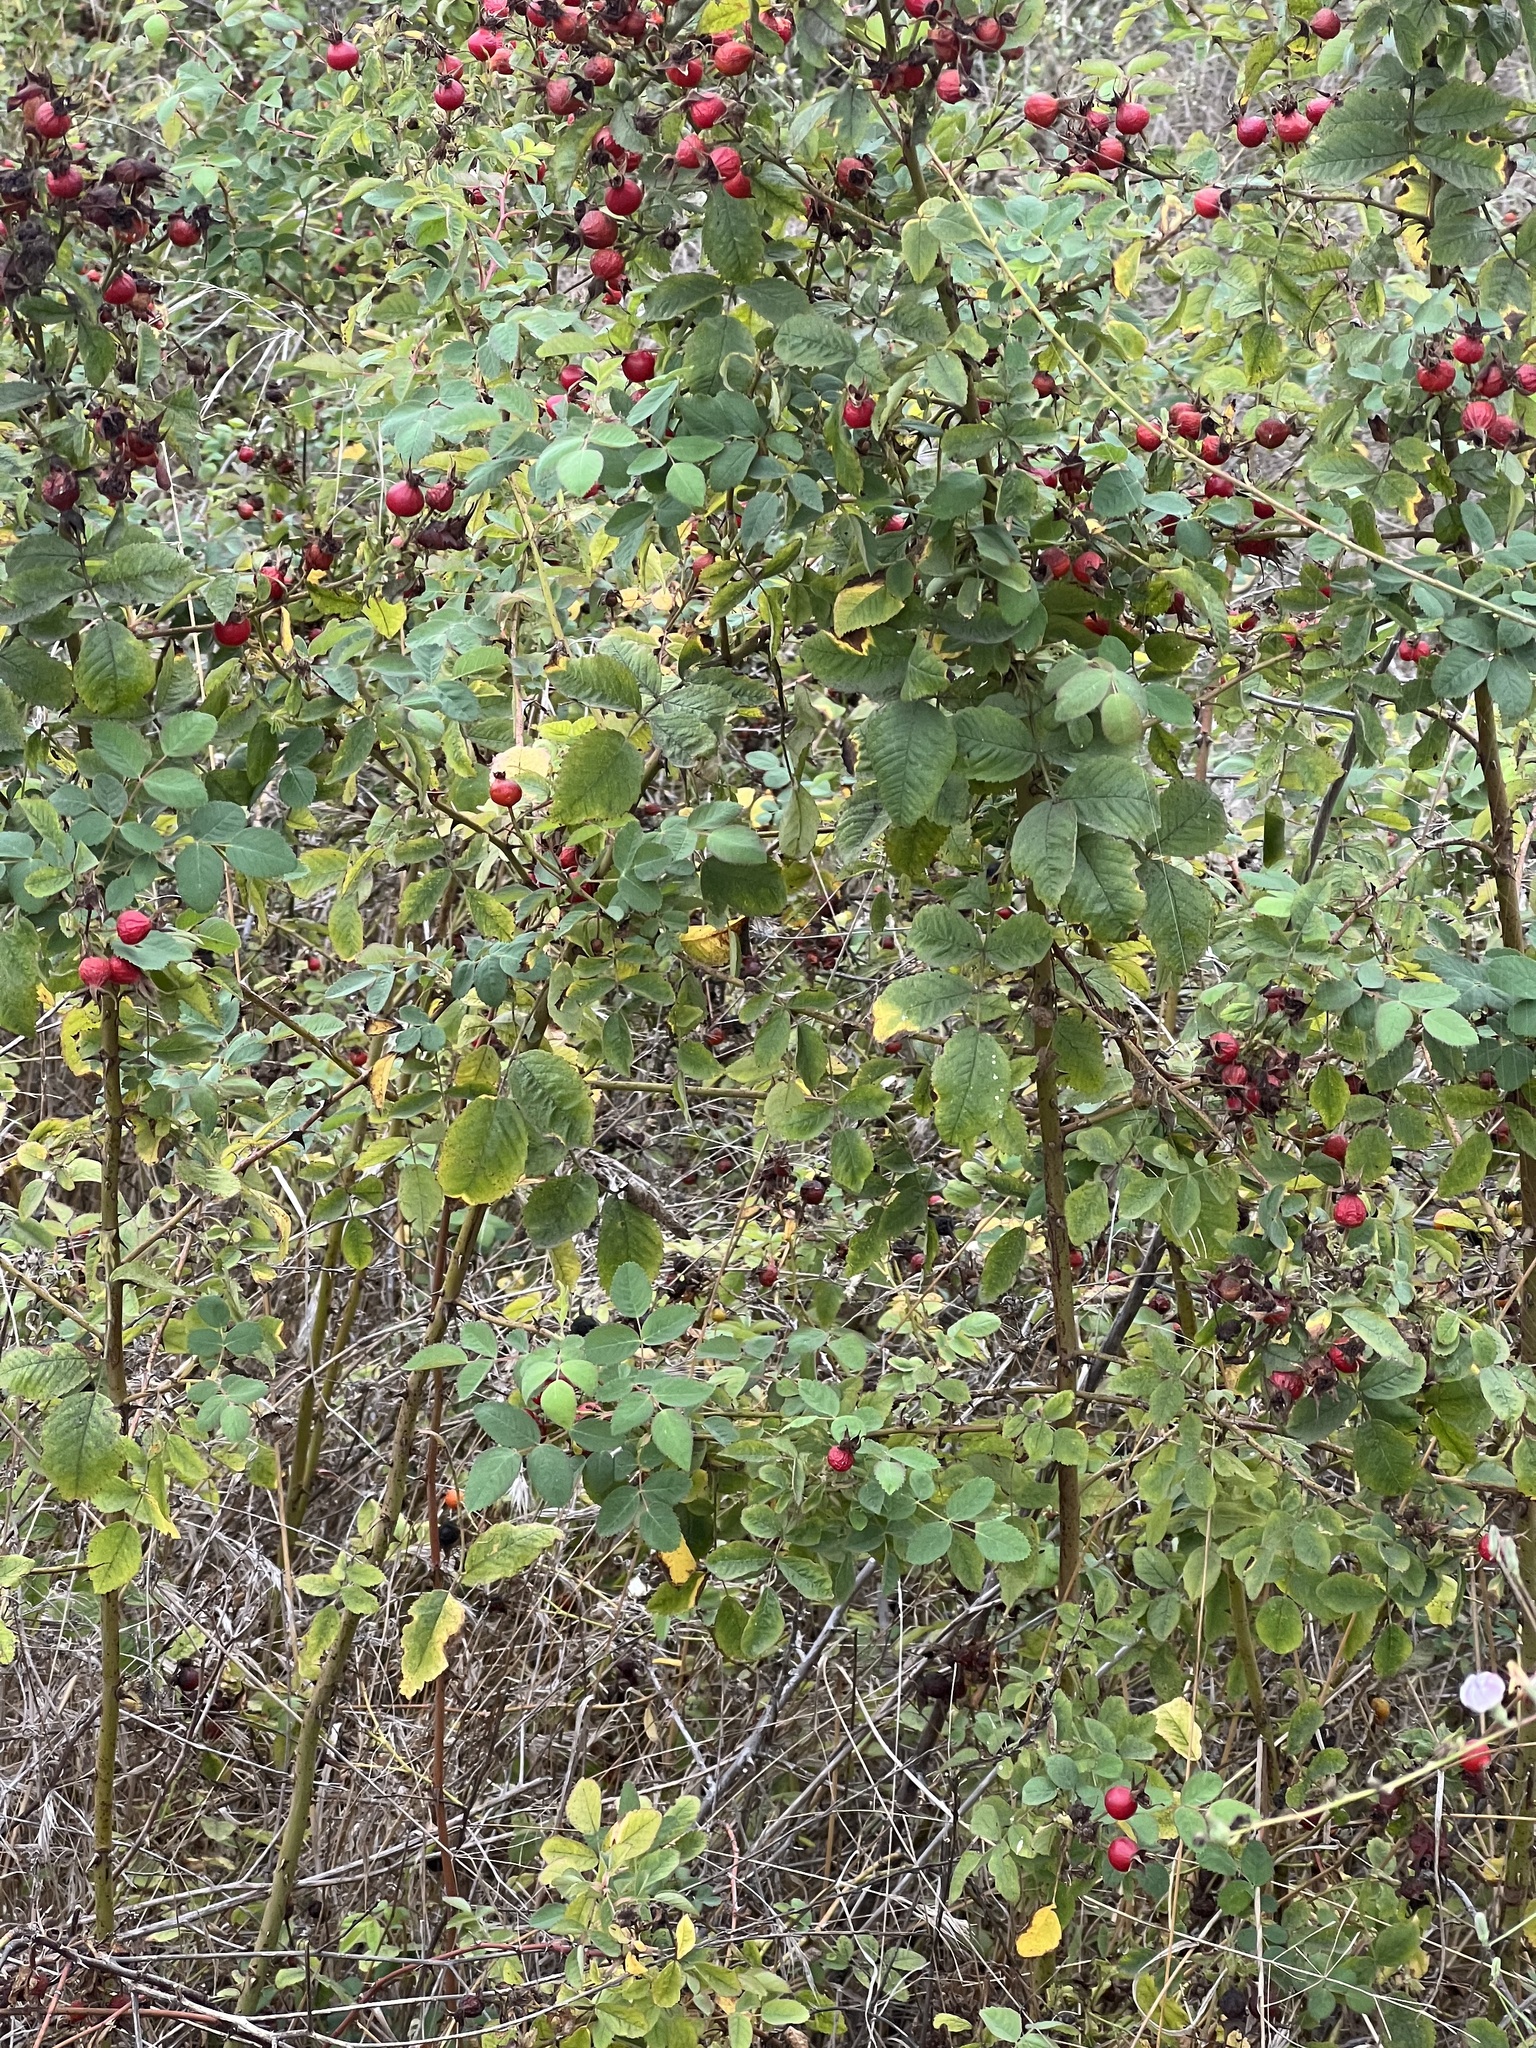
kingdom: Plantae
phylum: Tracheophyta
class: Magnoliopsida
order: Rosales
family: Rosaceae
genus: Rosa
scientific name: Rosa californica
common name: California rose
